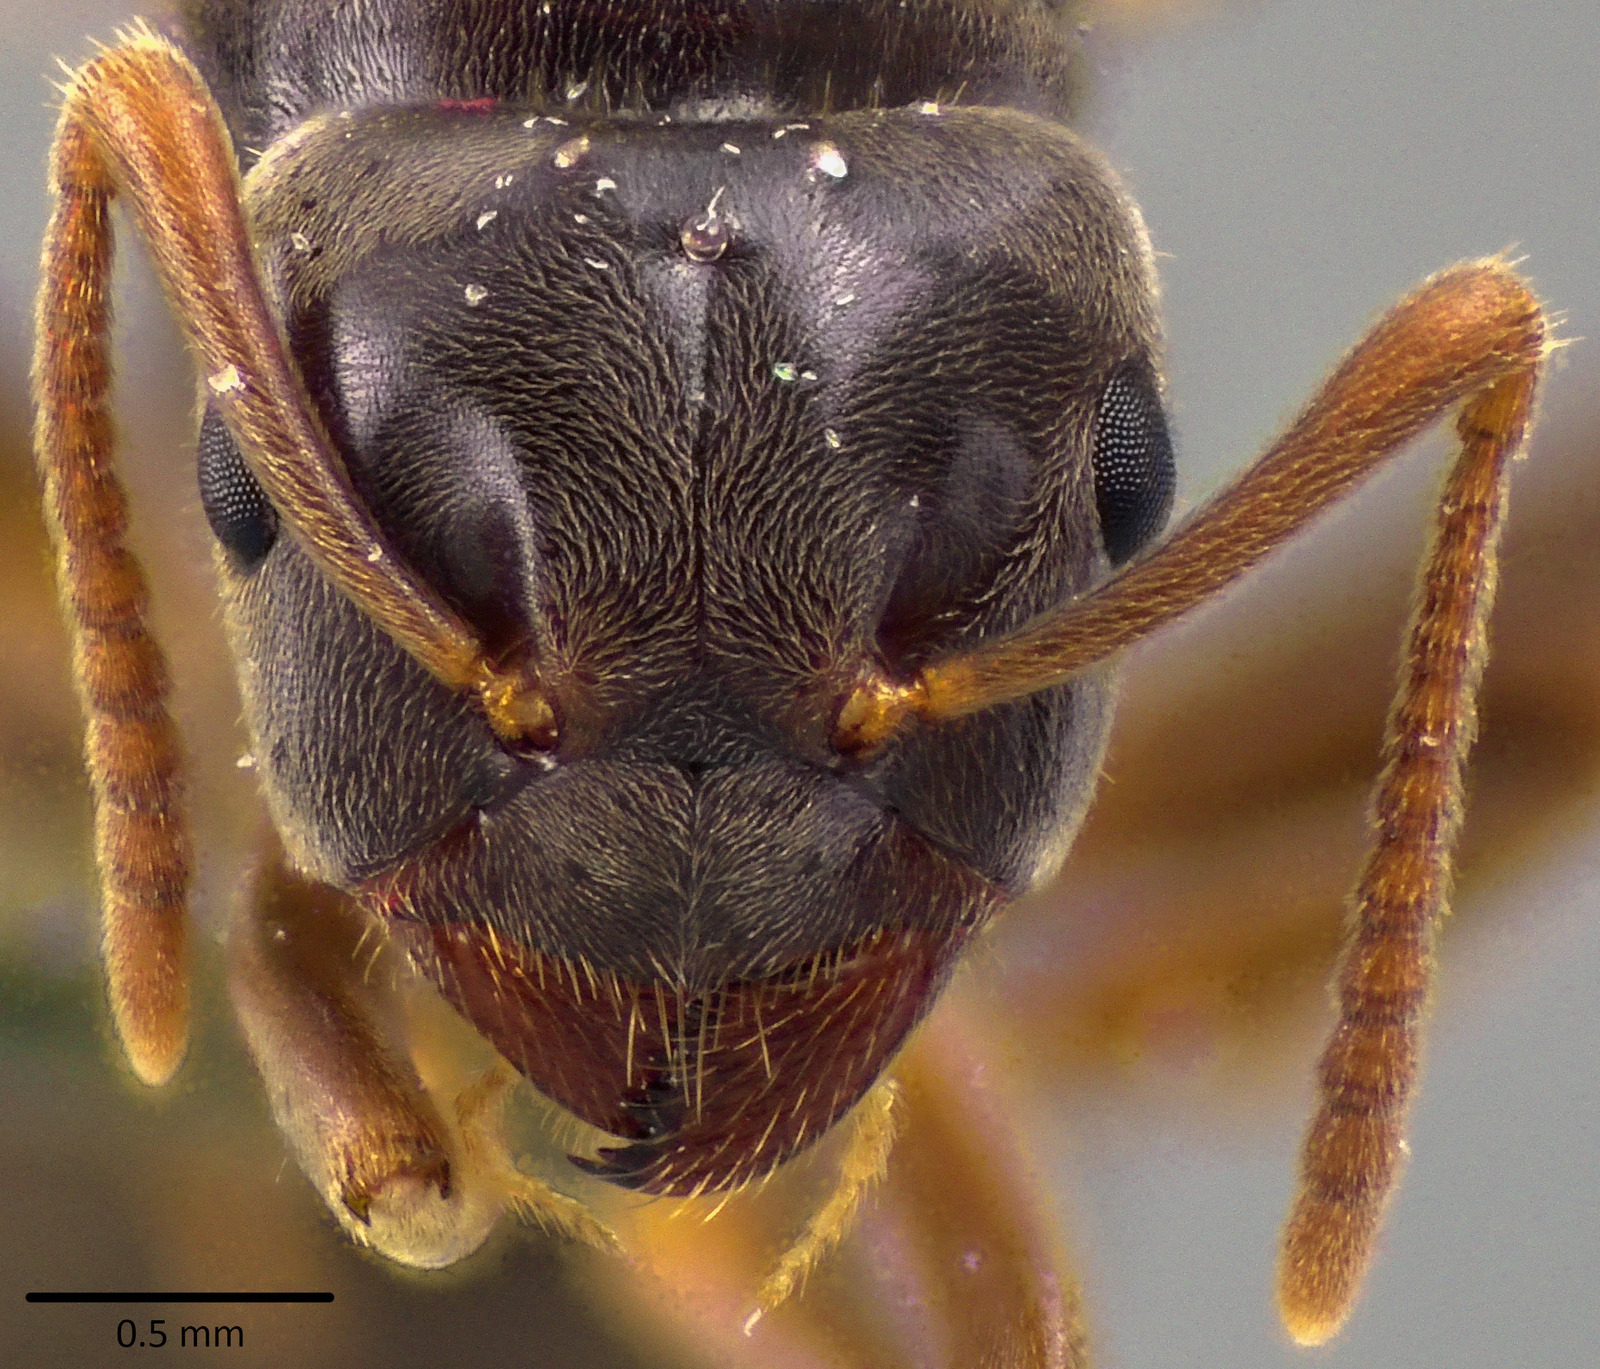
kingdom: Animalia
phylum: Arthropoda
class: Insecta
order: Hymenoptera
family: Formicidae
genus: Lasius
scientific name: Lasius aphidicola
